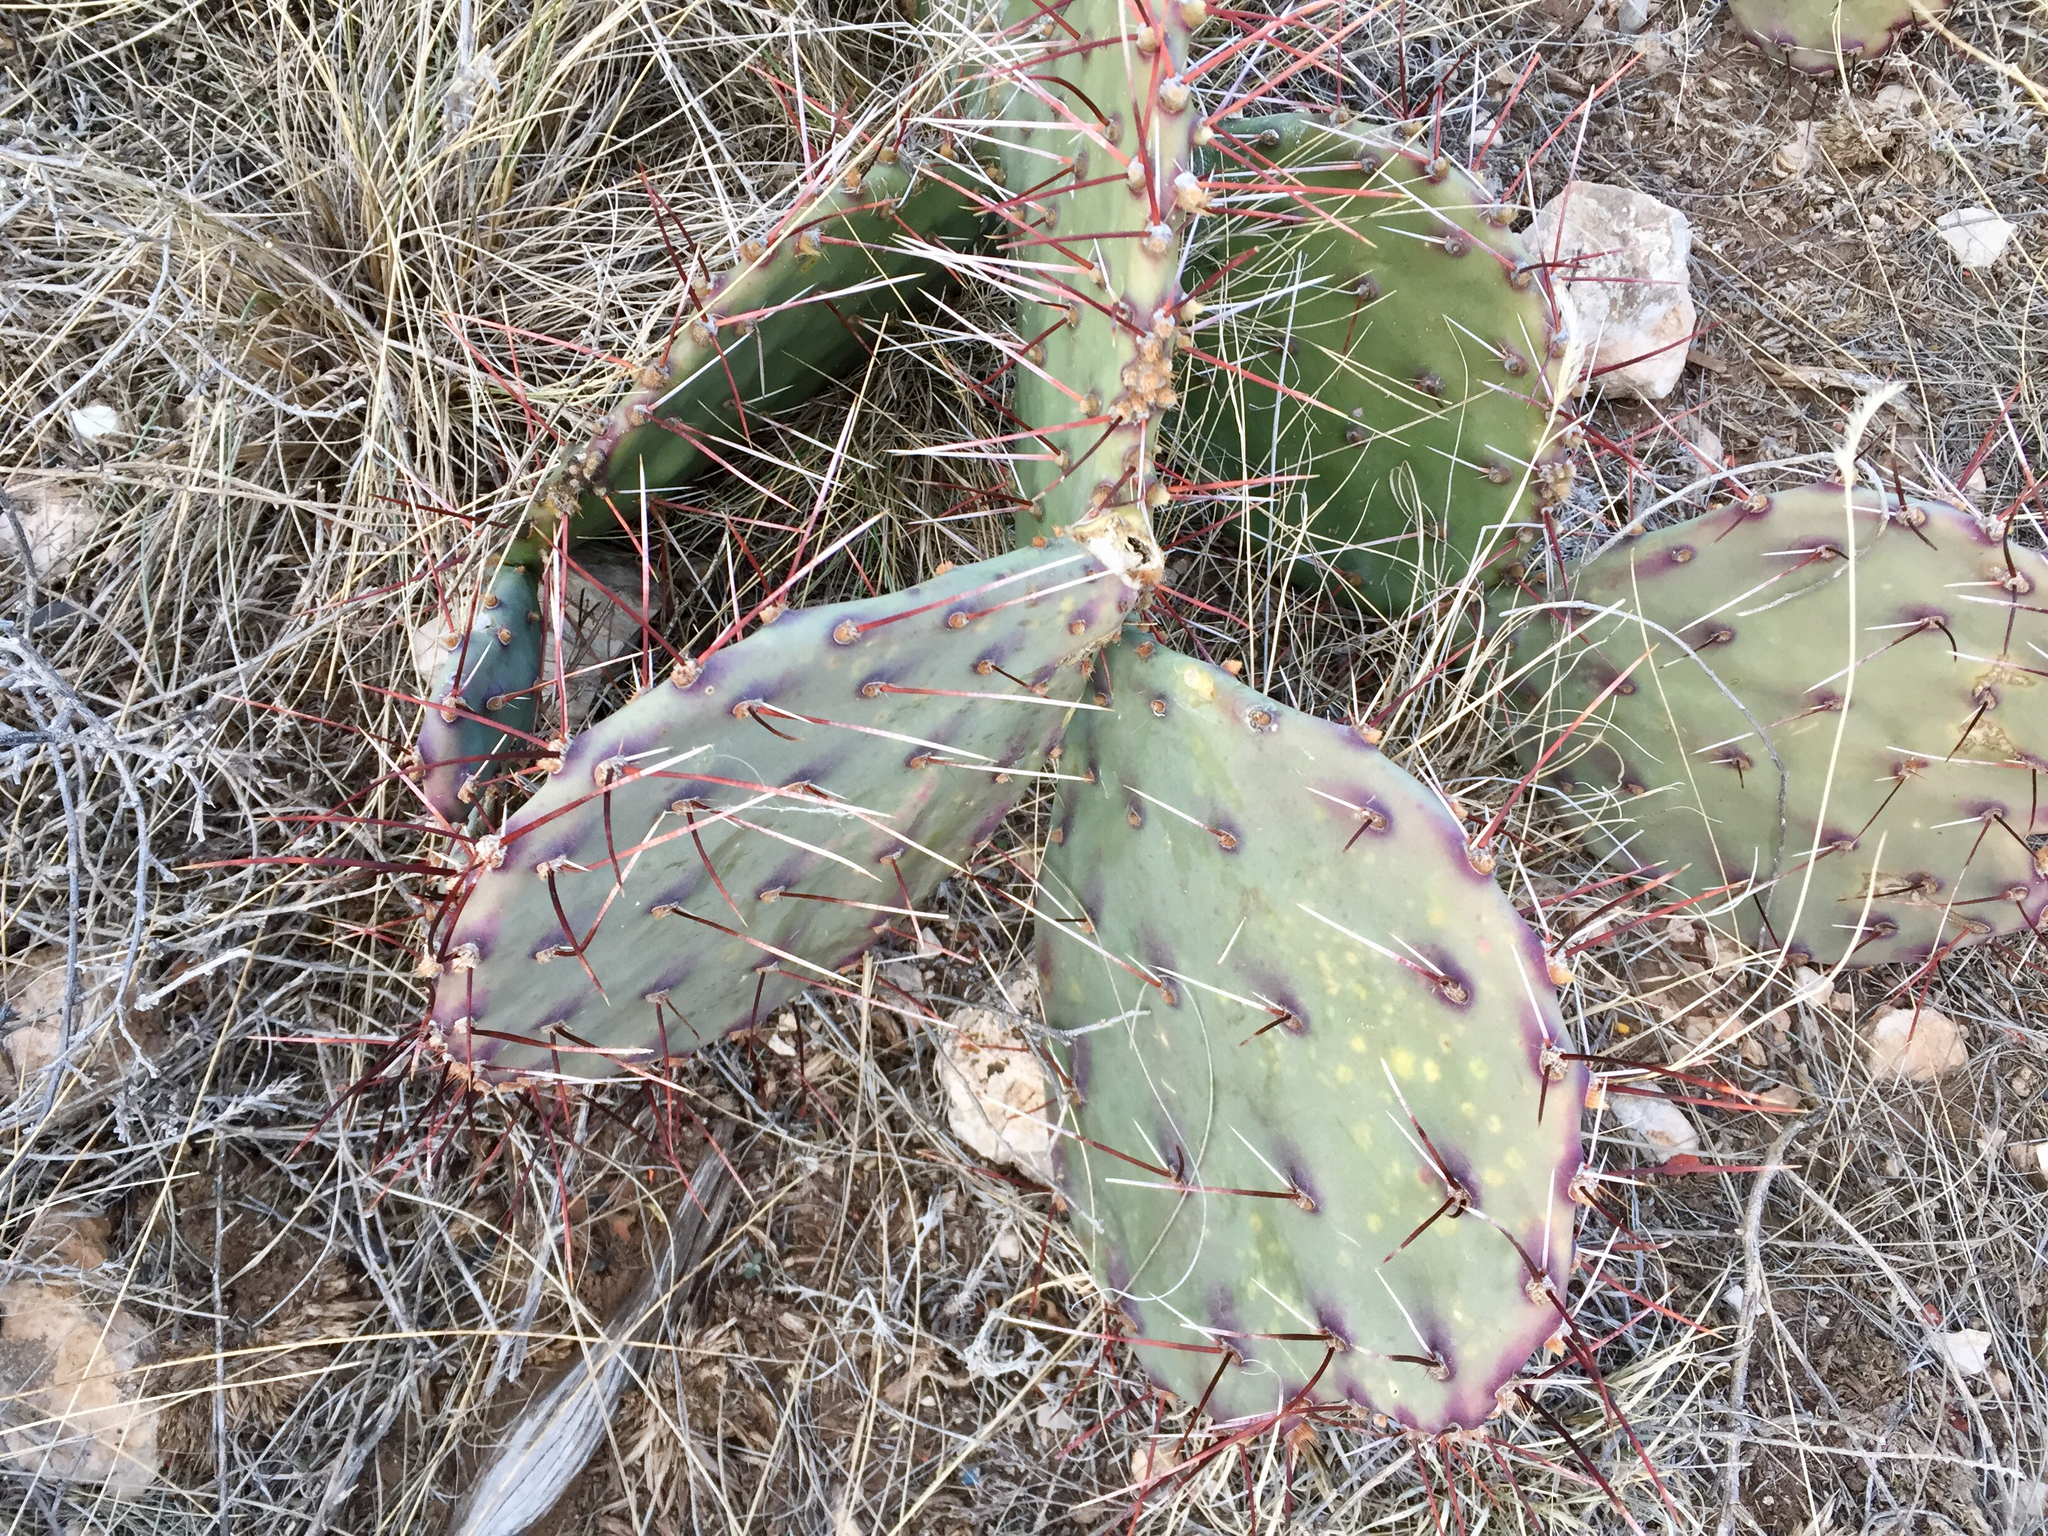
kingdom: Plantae
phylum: Tracheophyta
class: Magnoliopsida
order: Caryophyllales
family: Cactaceae
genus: Opuntia
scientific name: Opuntia phaeacantha
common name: New mexico prickly-pear
